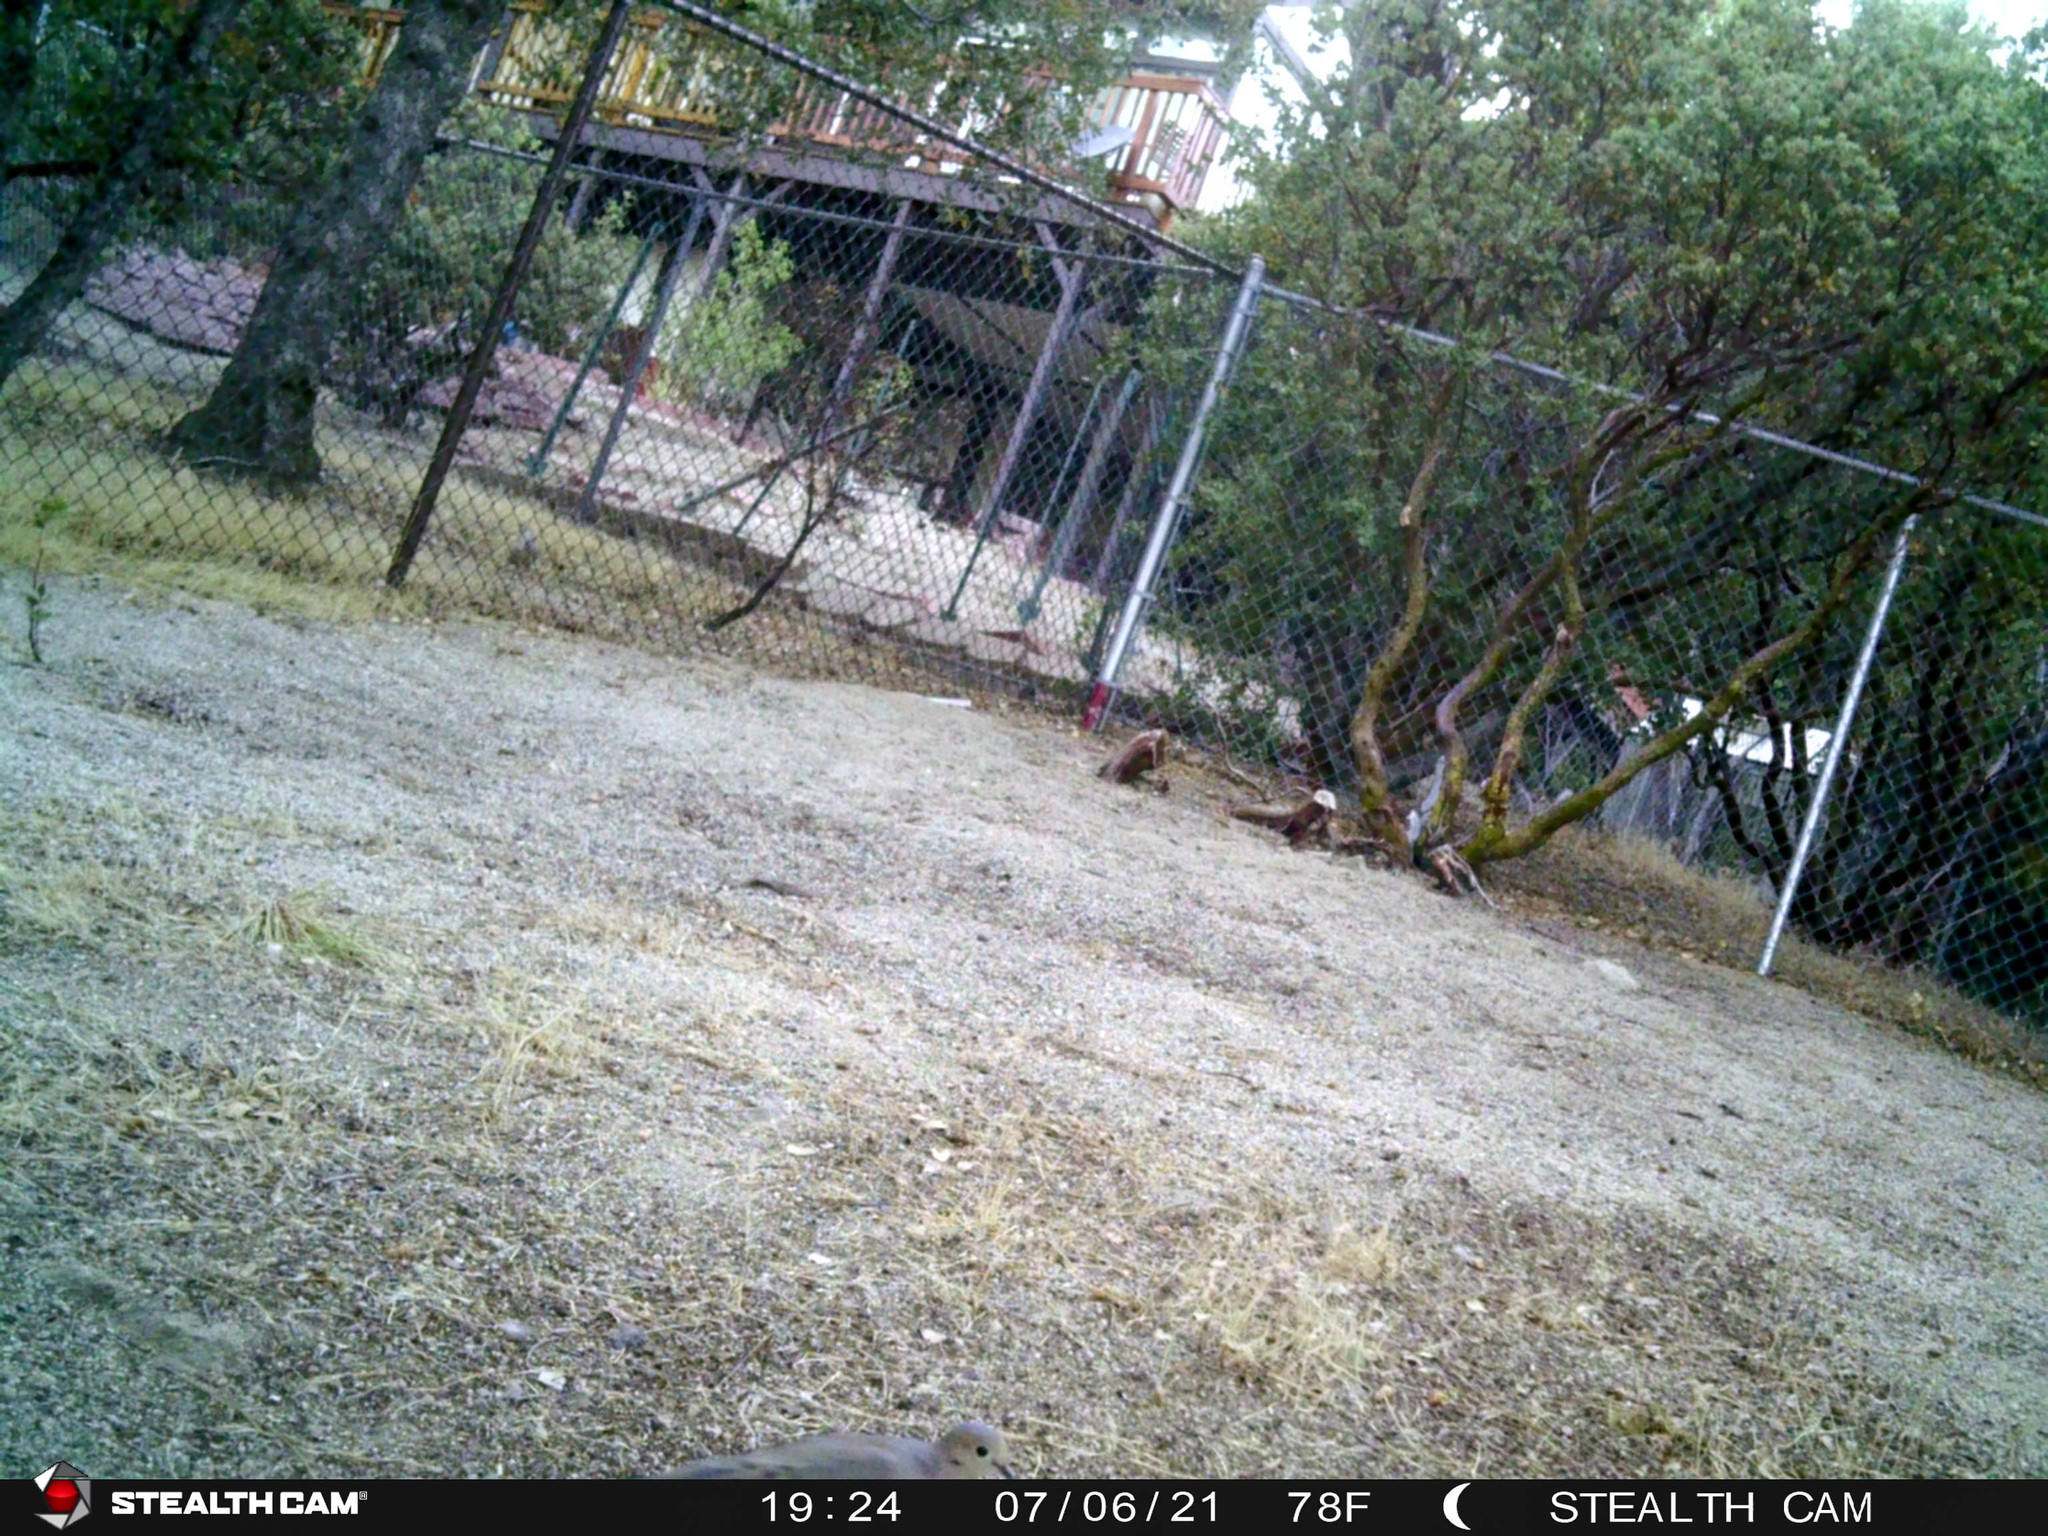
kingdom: Animalia
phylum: Chordata
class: Aves
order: Columbiformes
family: Columbidae
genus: Zenaida
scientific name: Zenaida macroura
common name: Mourning dove
